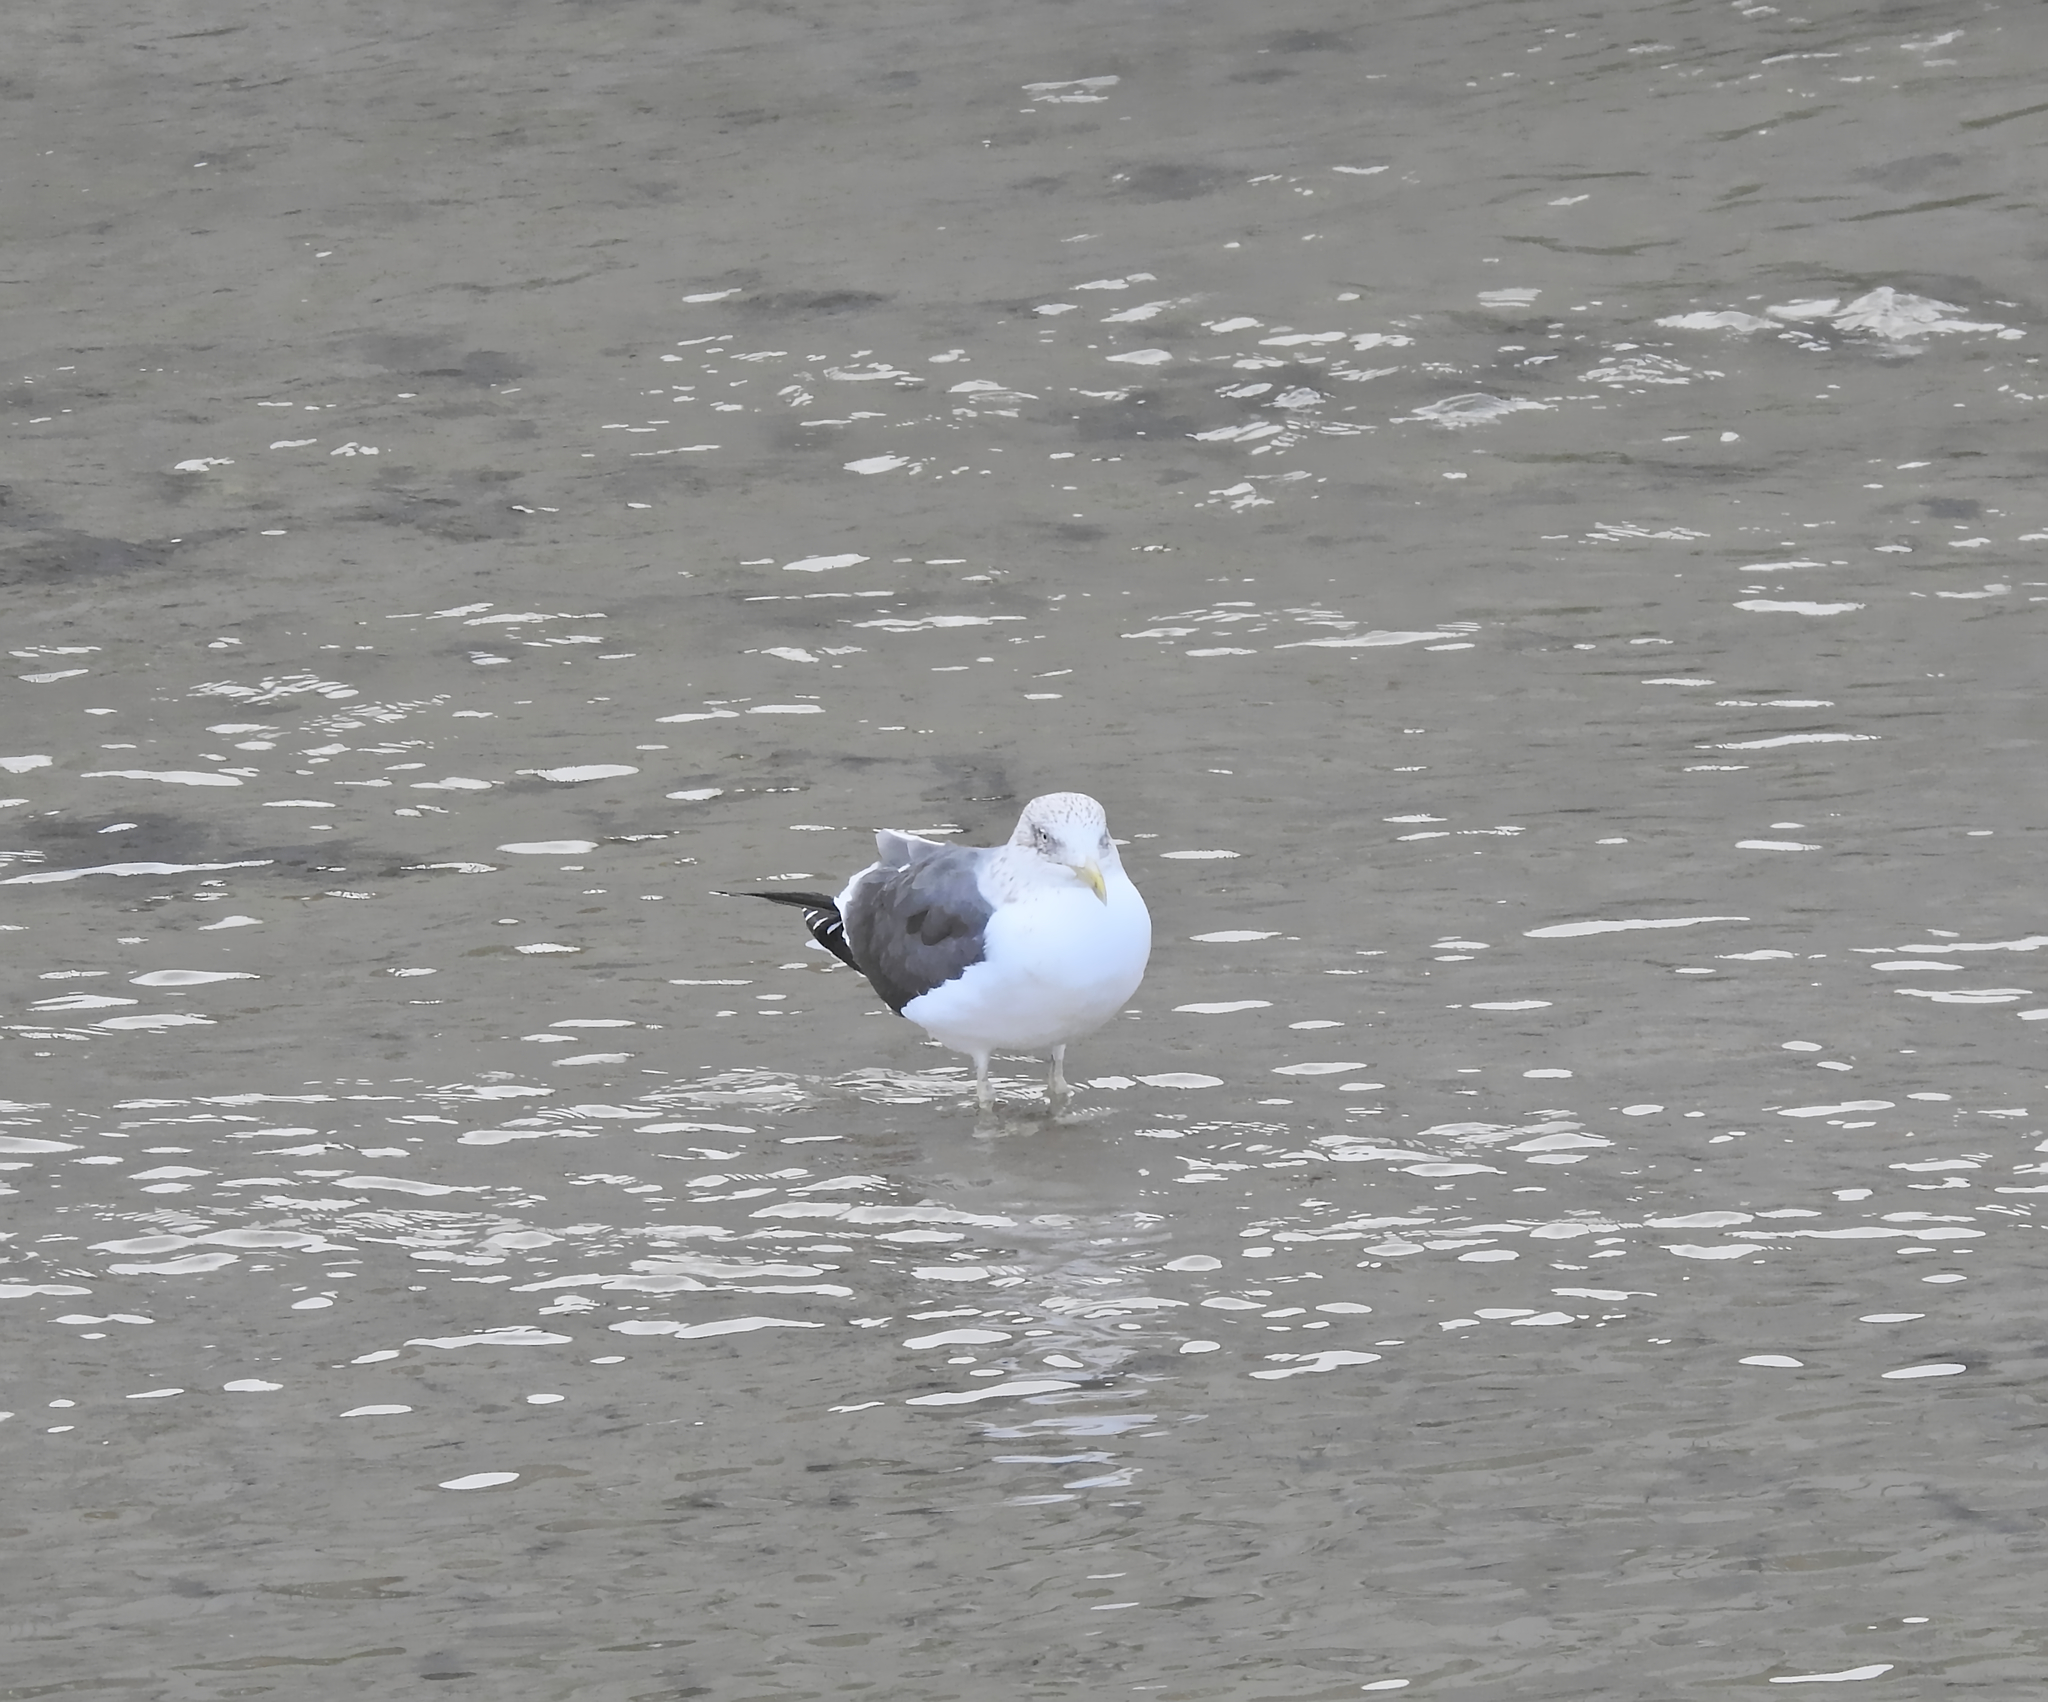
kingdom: Animalia
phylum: Chordata
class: Aves
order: Charadriiformes
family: Laridae
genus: Larus
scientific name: Larus fuscus
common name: Lesser black-backed gull
